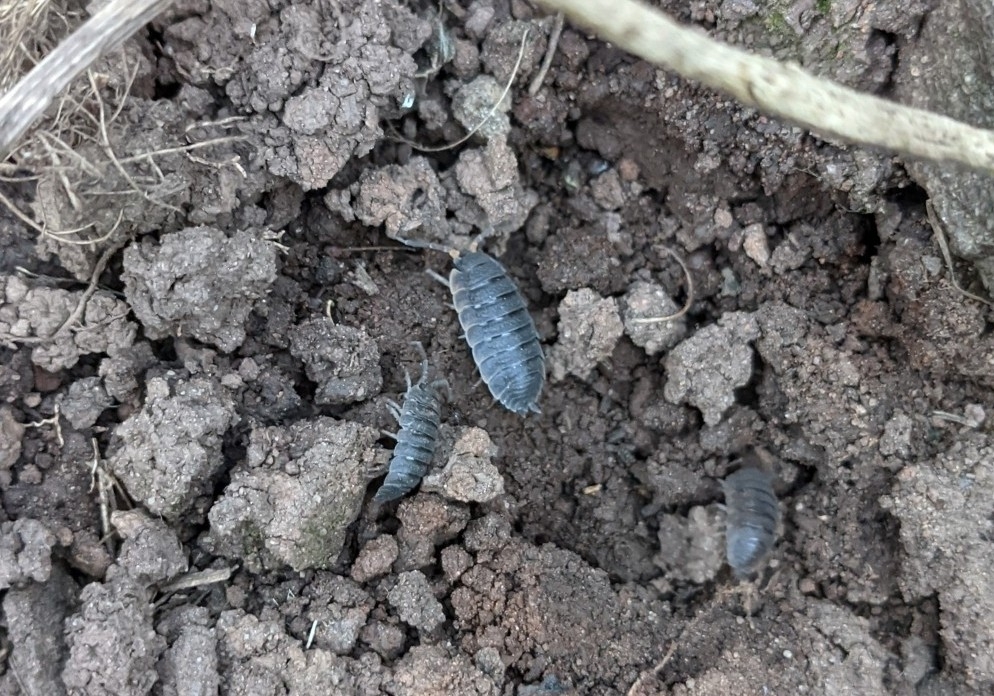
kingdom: Animalia
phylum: Arthropoda
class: Malacostraca
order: Isopoda
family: Porcellionidae
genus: Porcellio
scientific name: Porcellio scaber
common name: Common rough woodlouse
